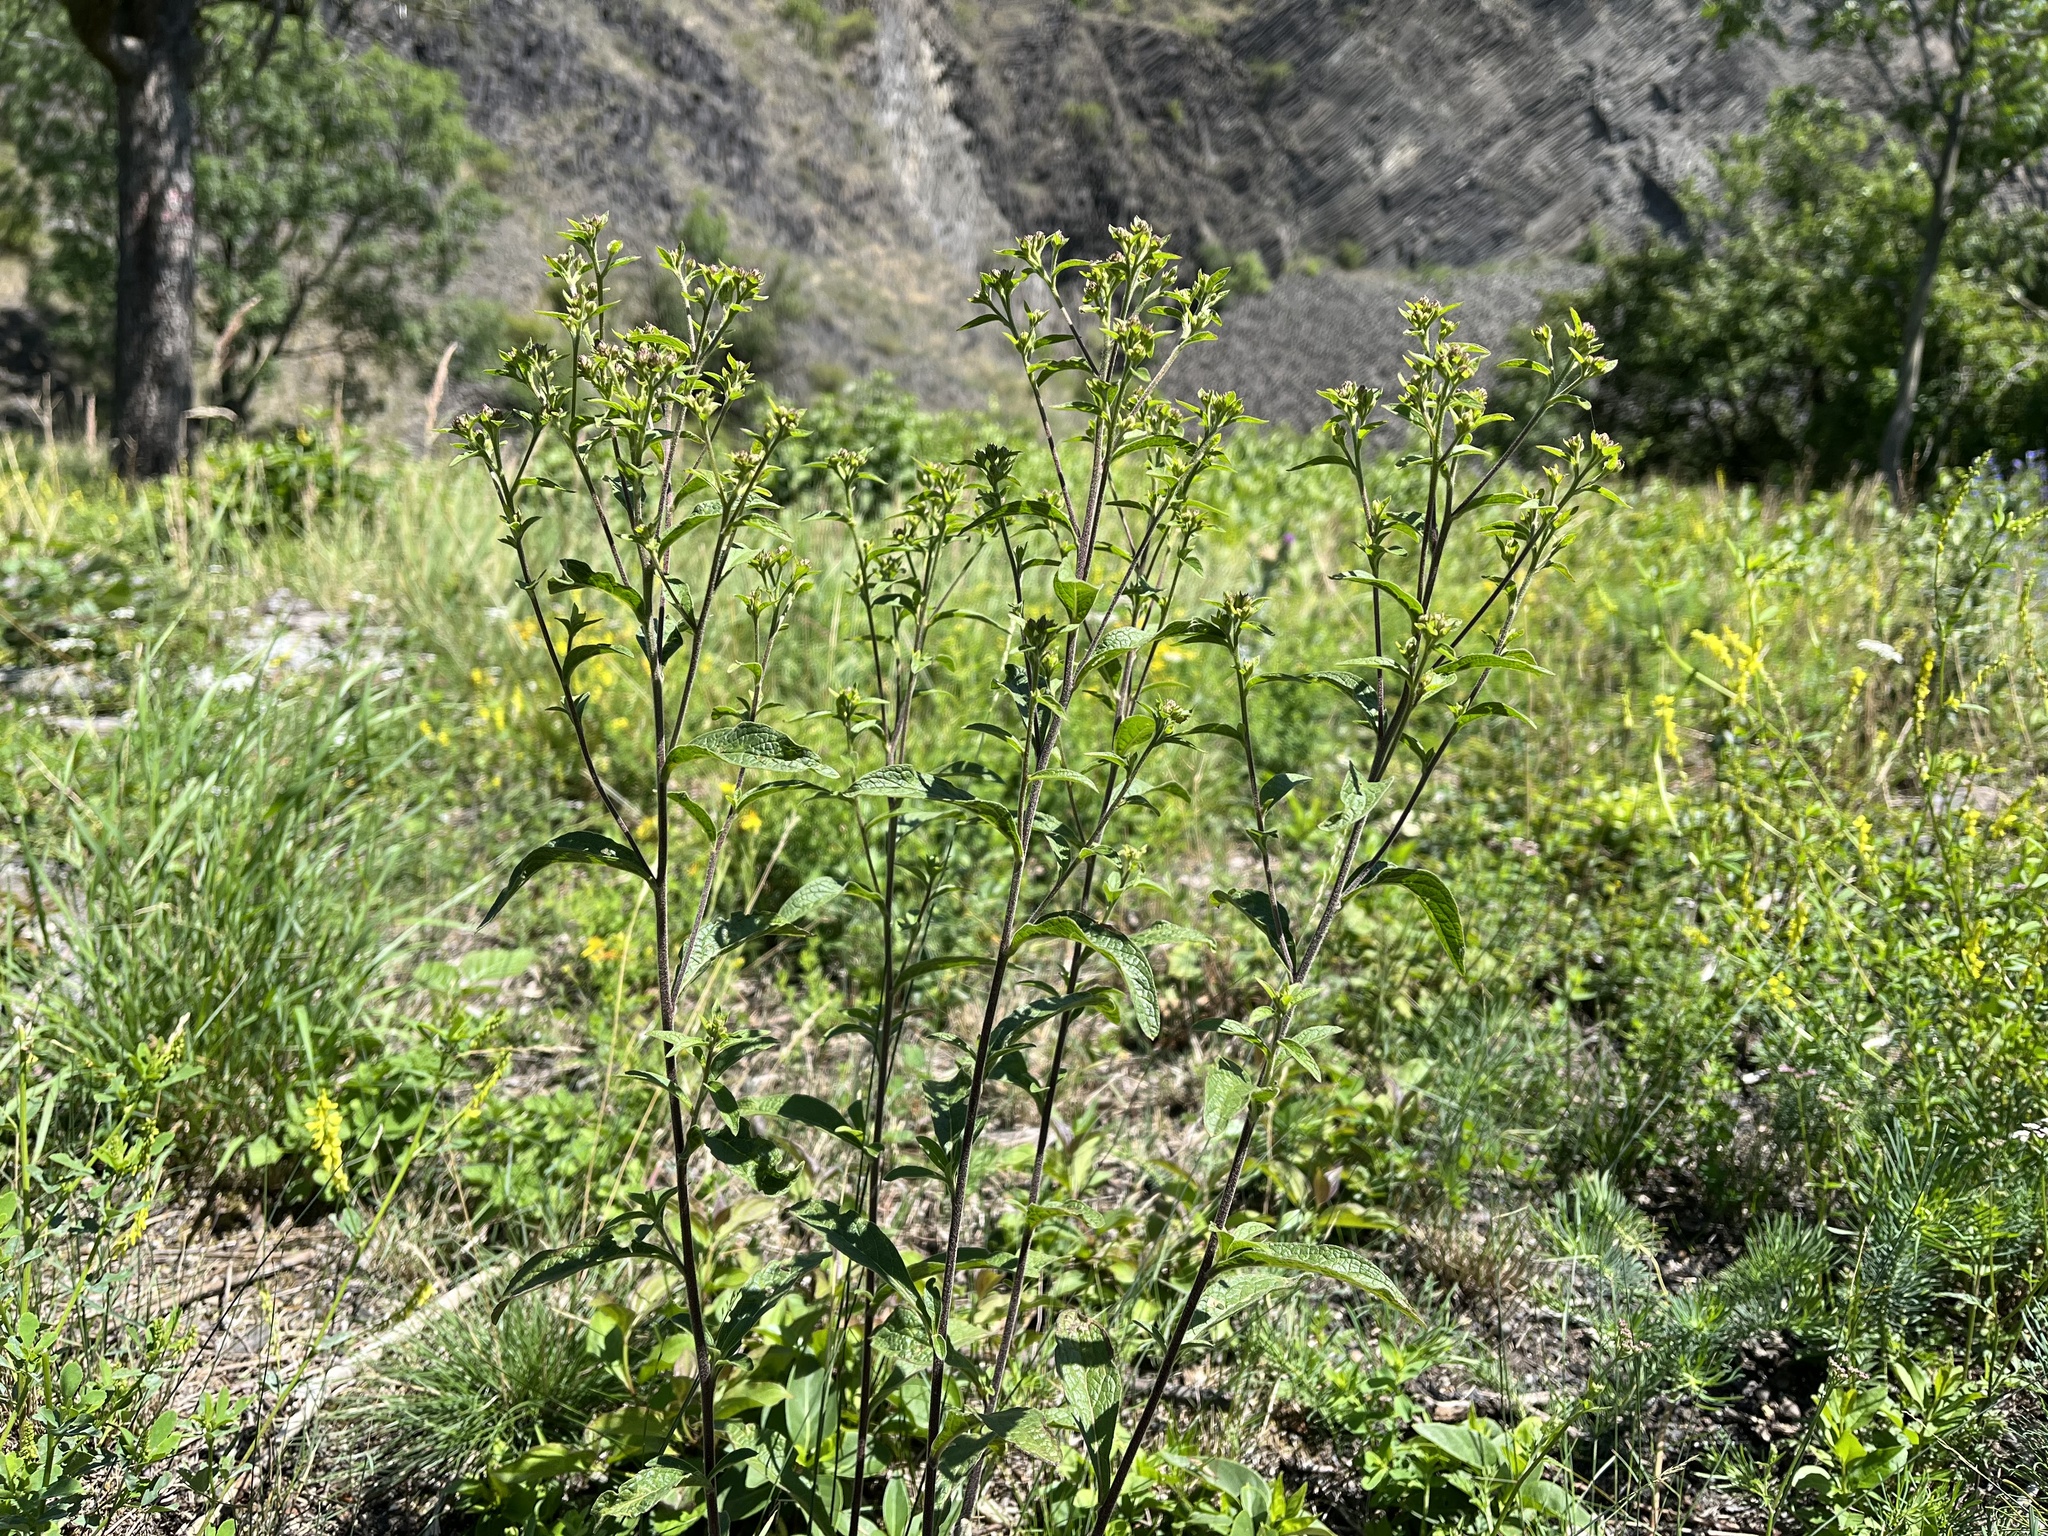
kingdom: Plantae
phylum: Tracheophyta
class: Magnoliopsida
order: Asterales
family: Asteraceae
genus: Pentanema
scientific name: Pentanema squarrosum
